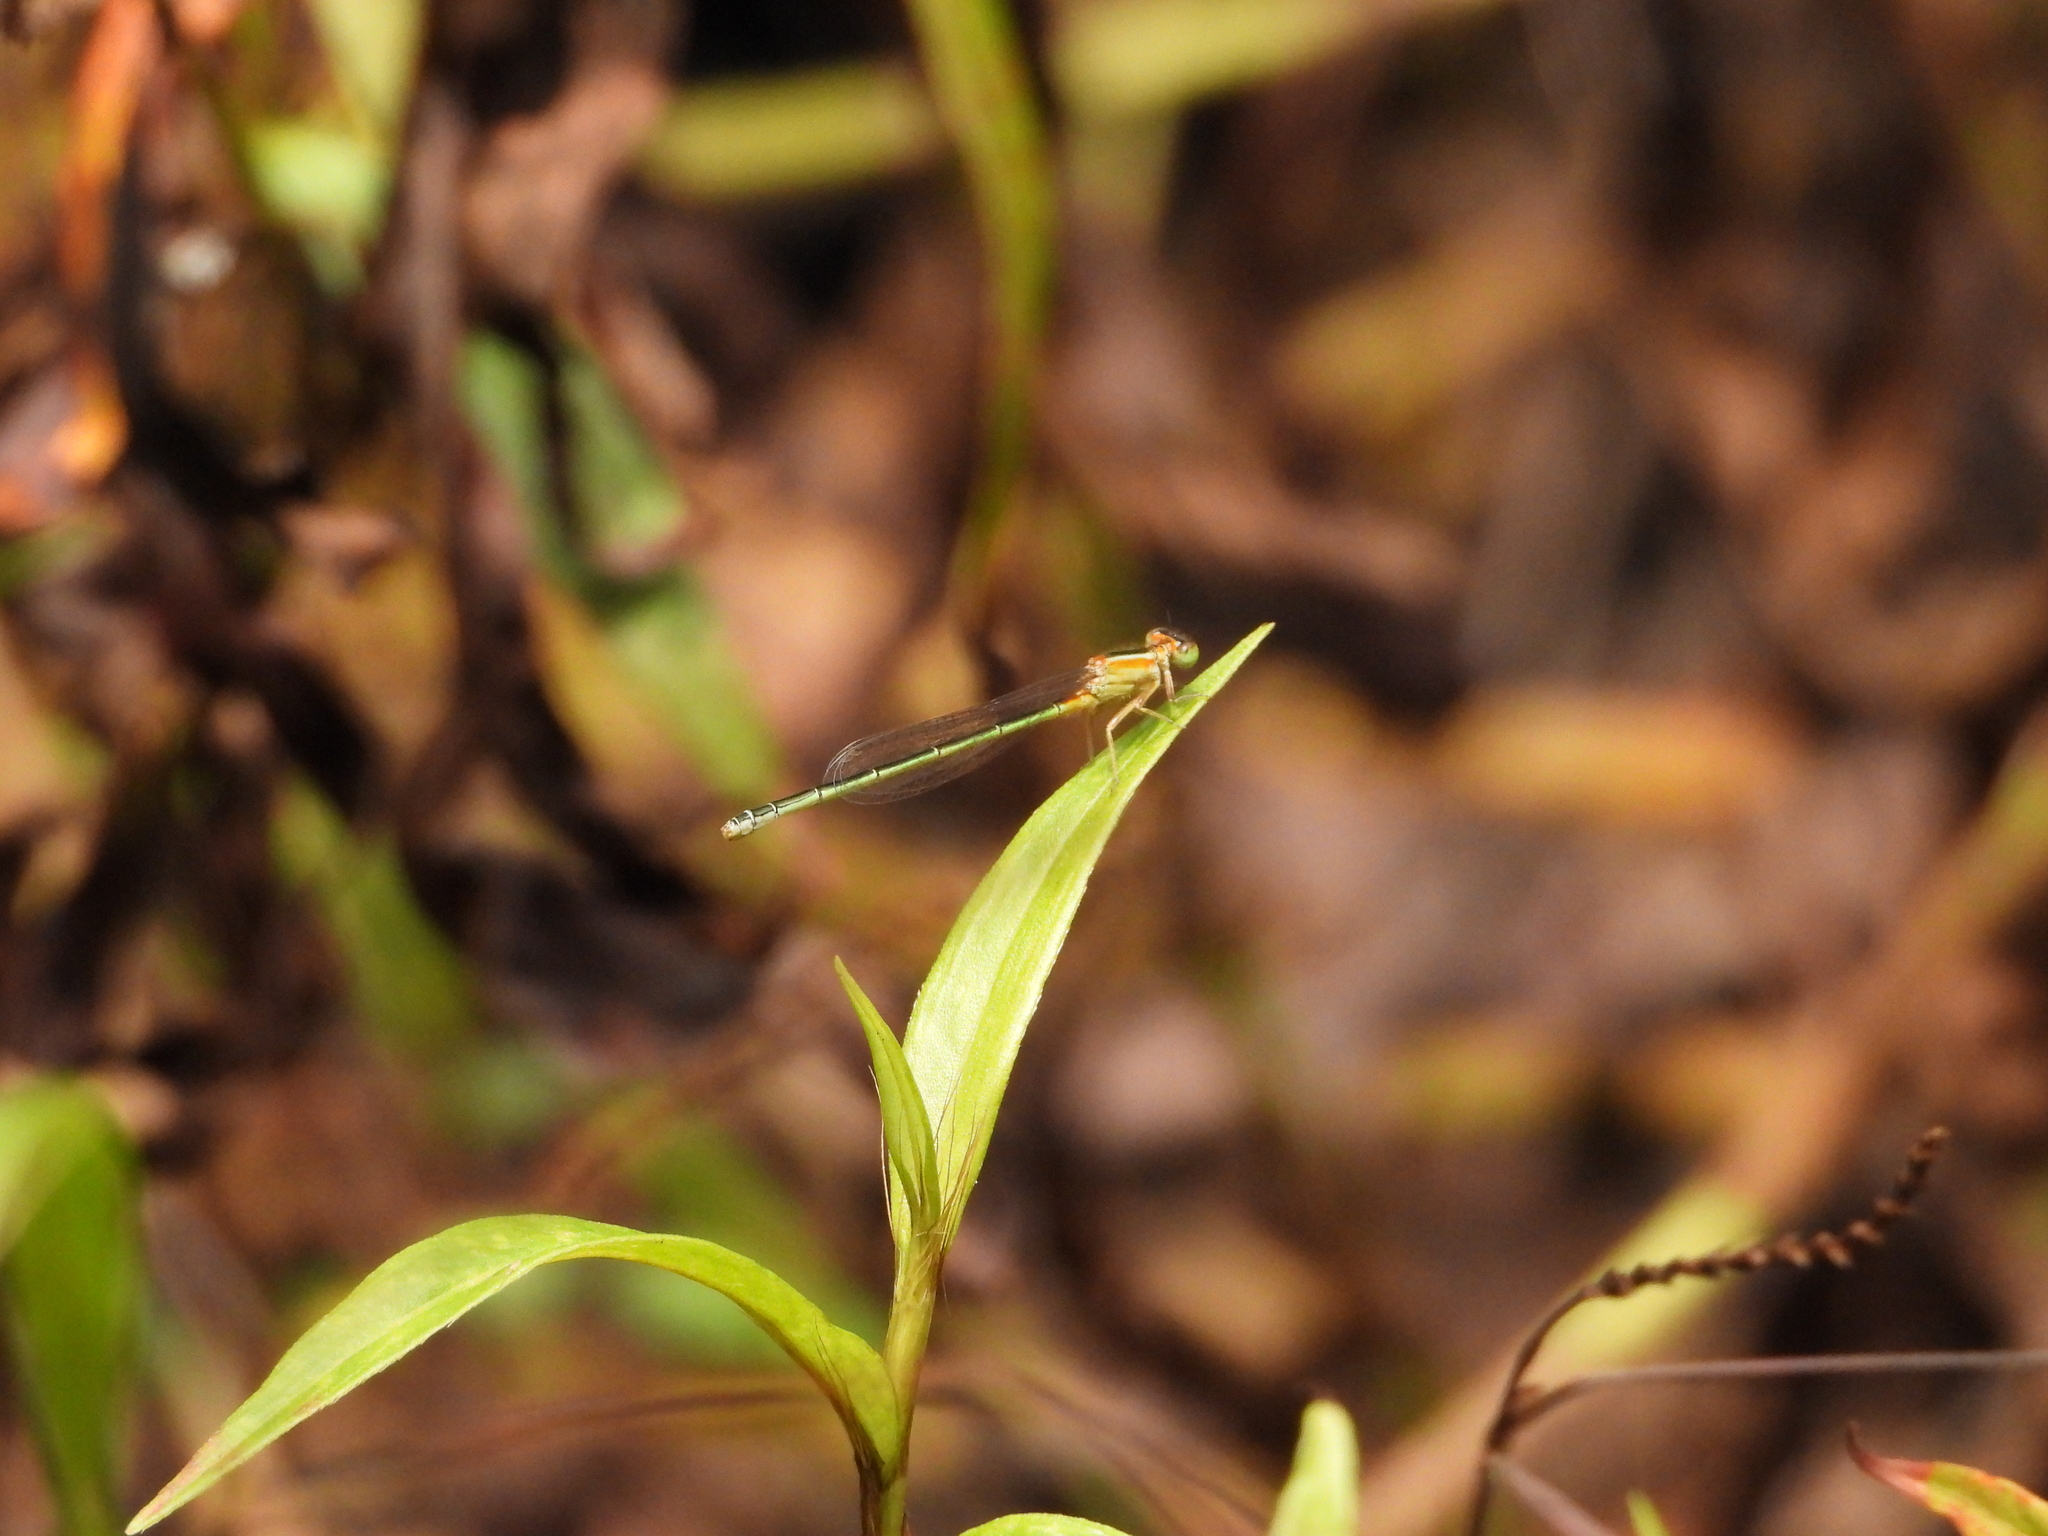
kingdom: Animalia
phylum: Arthropoda
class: Insecta
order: Odonata
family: Coenagrionidae
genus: Ischnura
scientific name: Ischnura senegalensis
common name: Tropical bluetail
